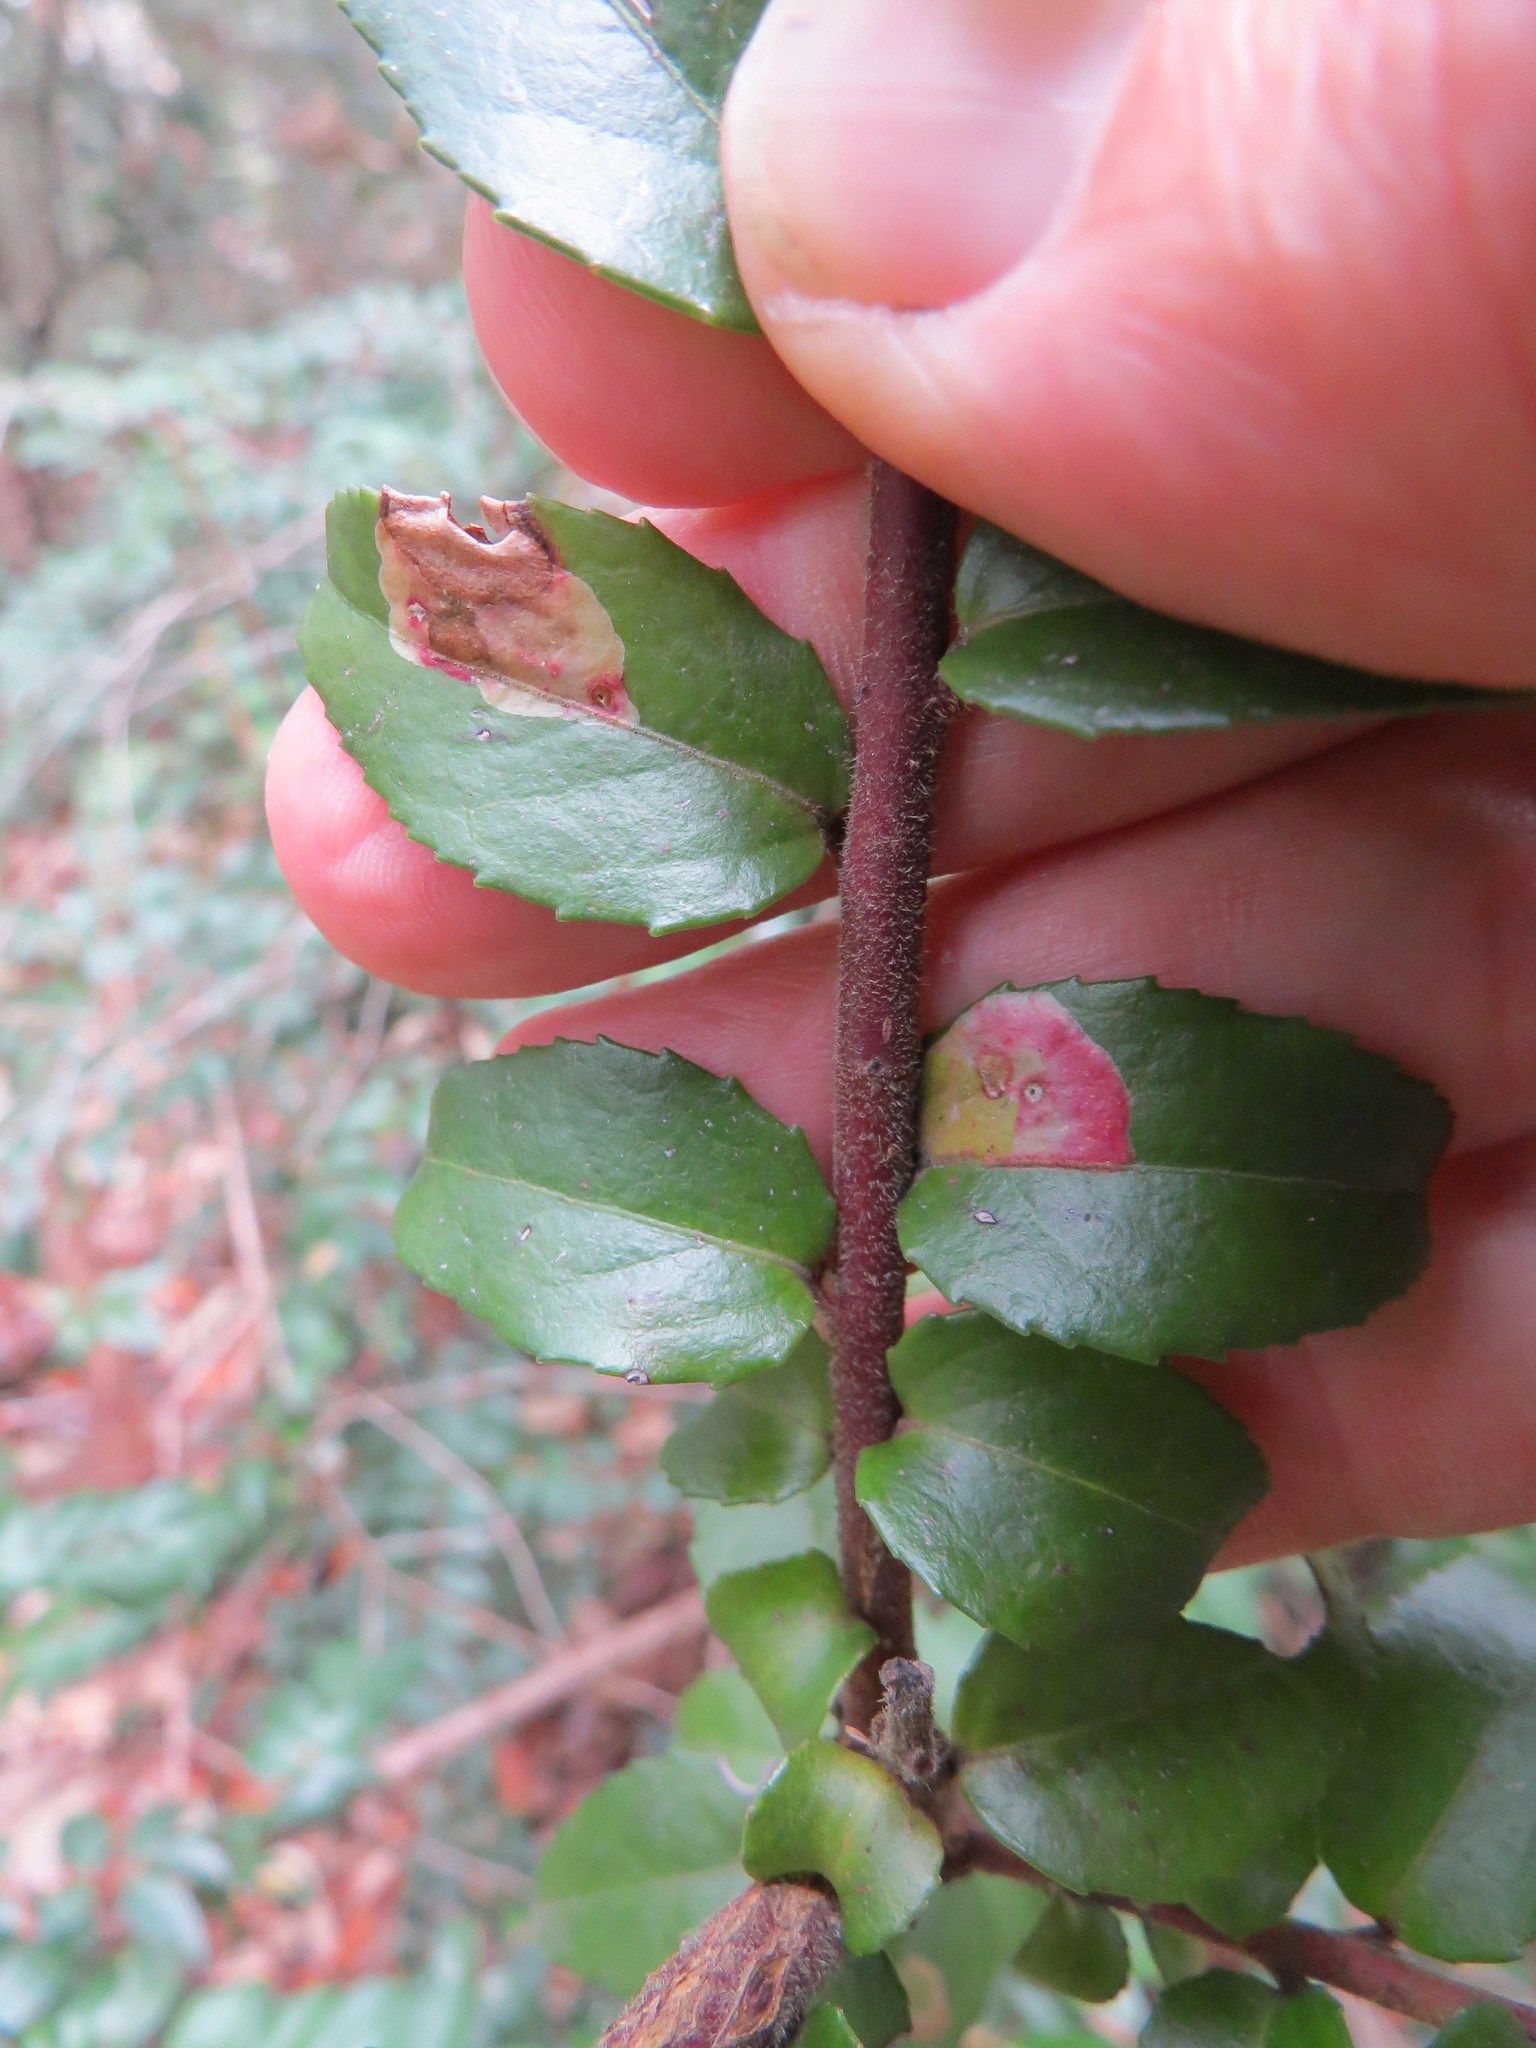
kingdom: Animalia
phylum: Arthropoda
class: Insecta
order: Lepidoptera
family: Gracillariidae
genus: Cameraria
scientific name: Cameraria nemoris
